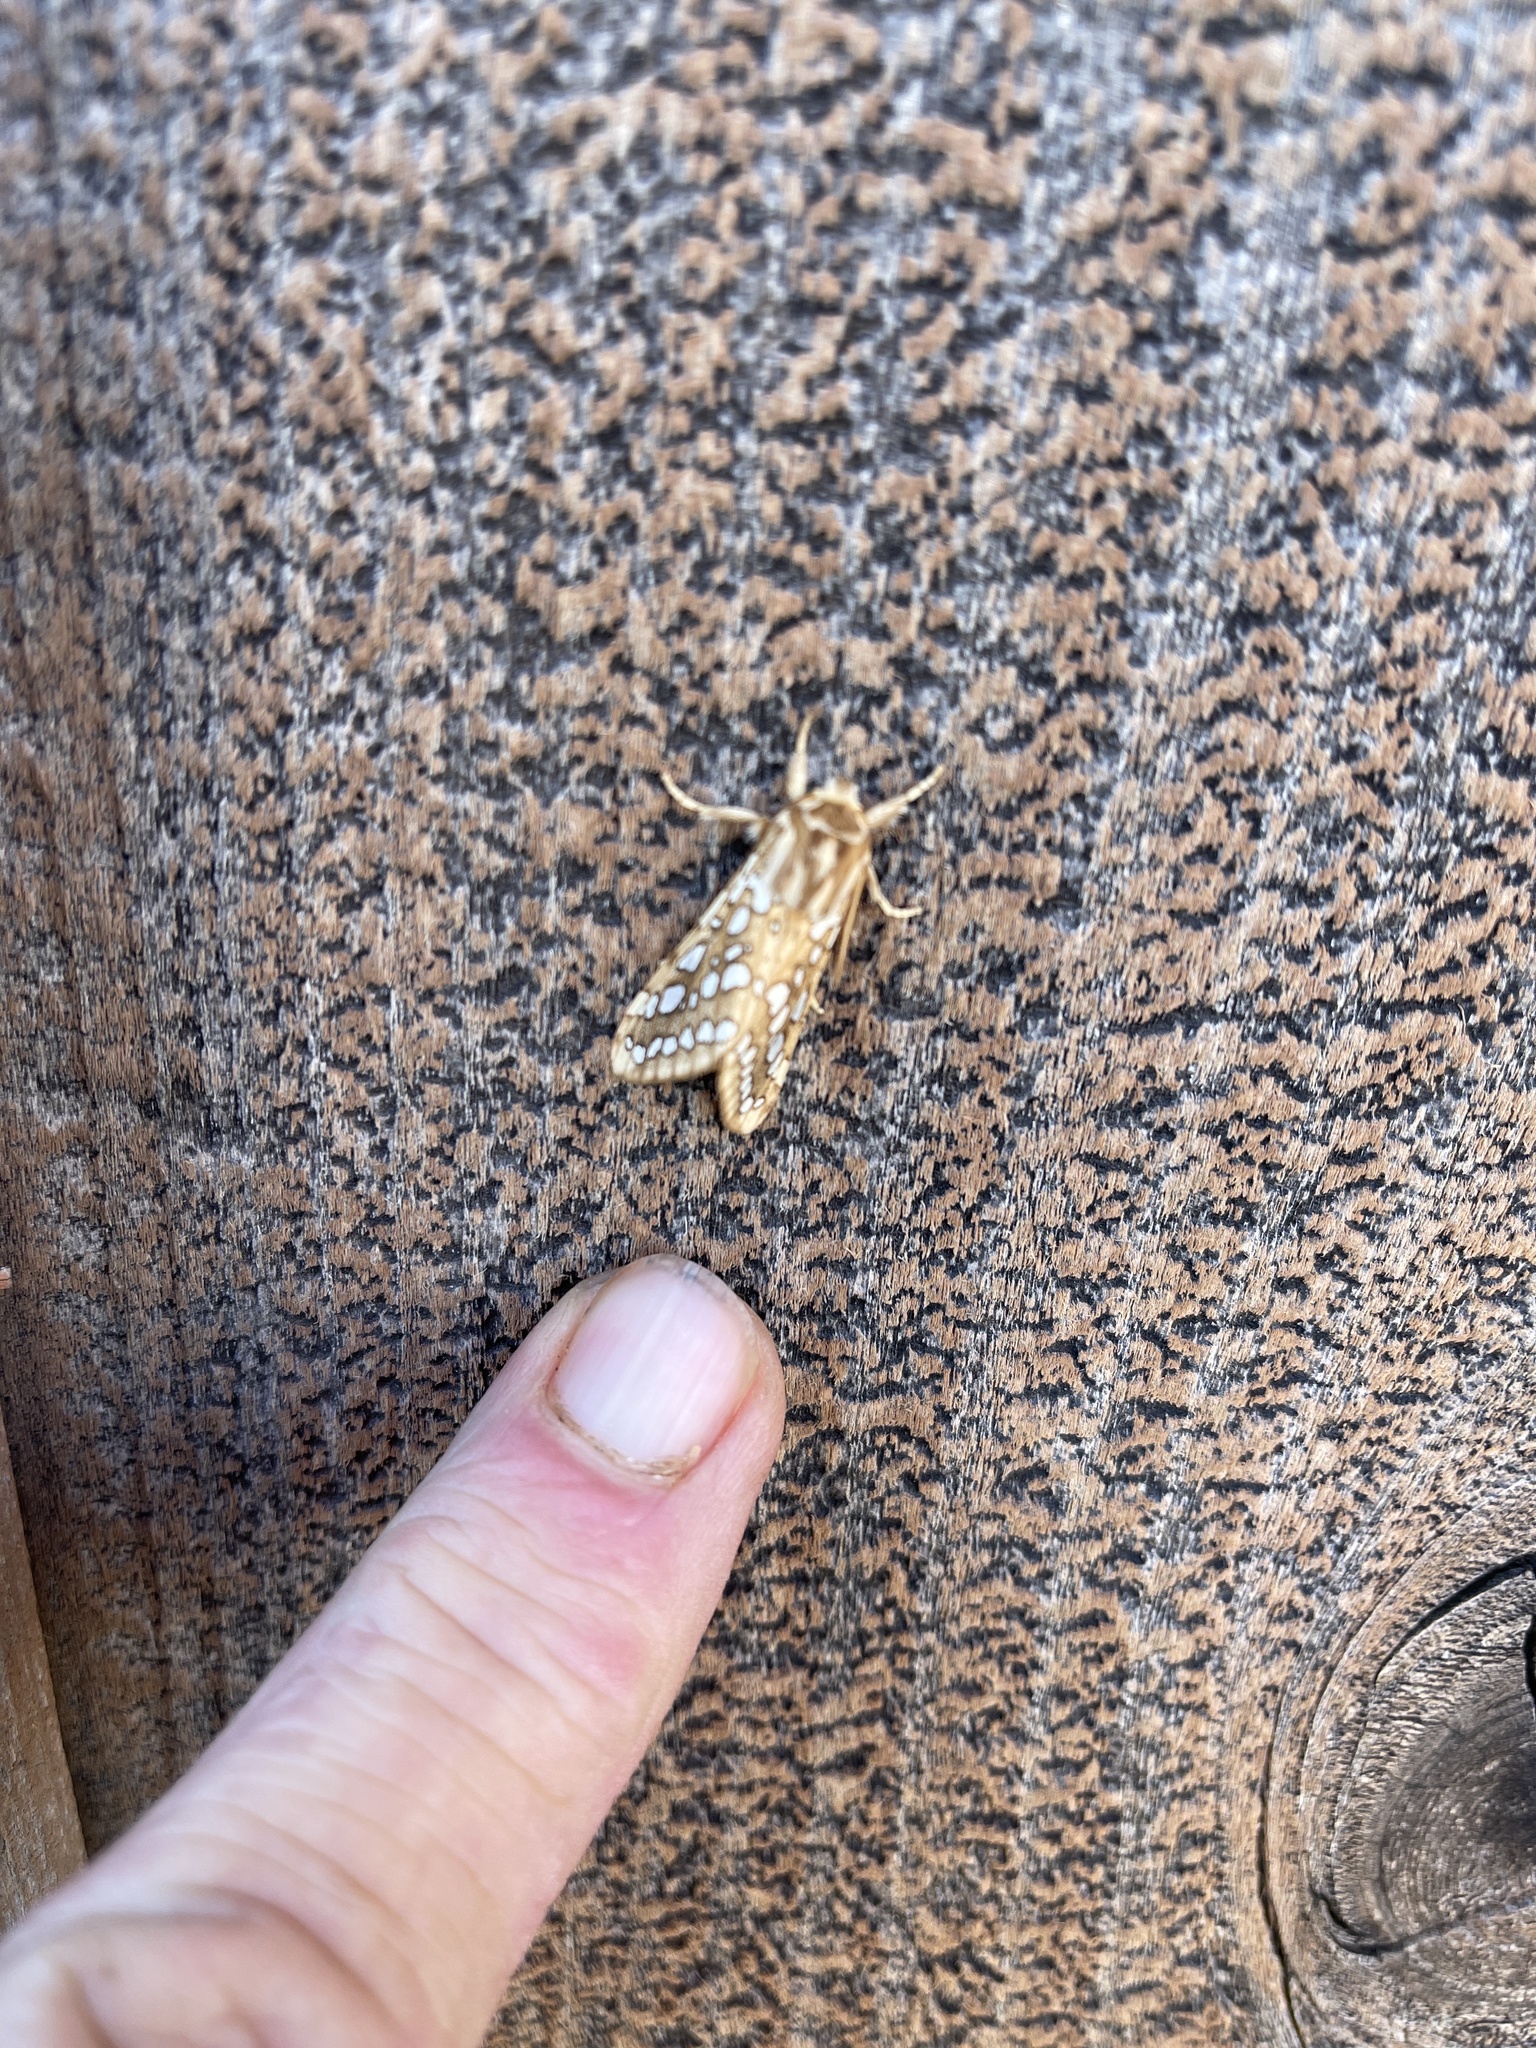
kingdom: Animalia
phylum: Arthropoda
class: Insecta
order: Lepidoptera
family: Erebidae
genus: Lophocampa
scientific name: Lophocampa argentata
